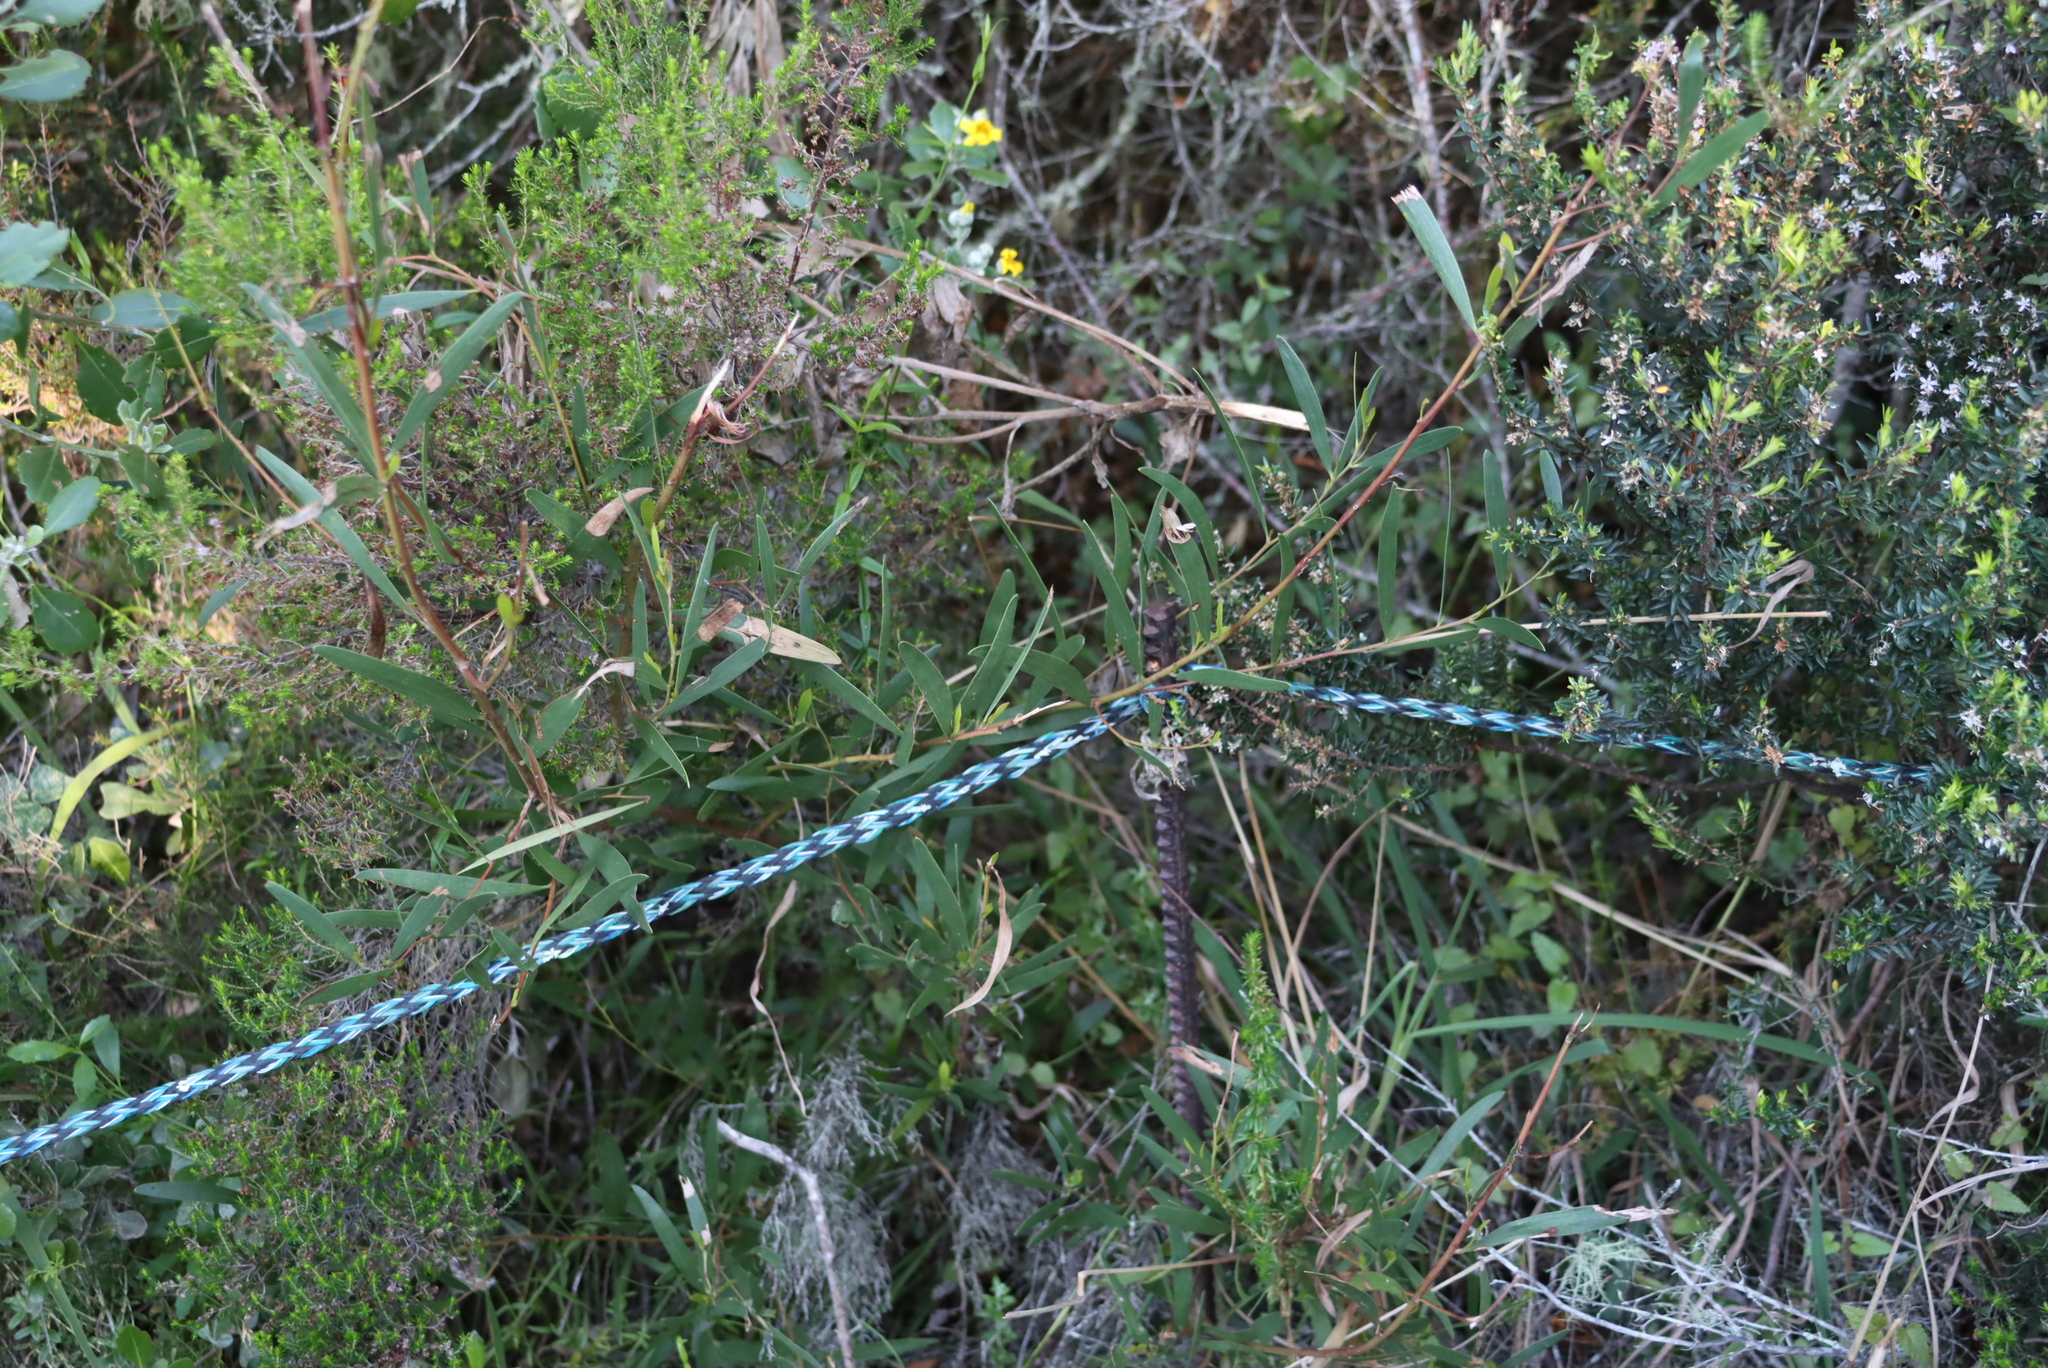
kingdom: Plantae
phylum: Tracheophyta
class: Magnoliopsida
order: Fabales
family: Fabaceae
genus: Acacia
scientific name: Acacia cyclops
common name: Coastal wattle
